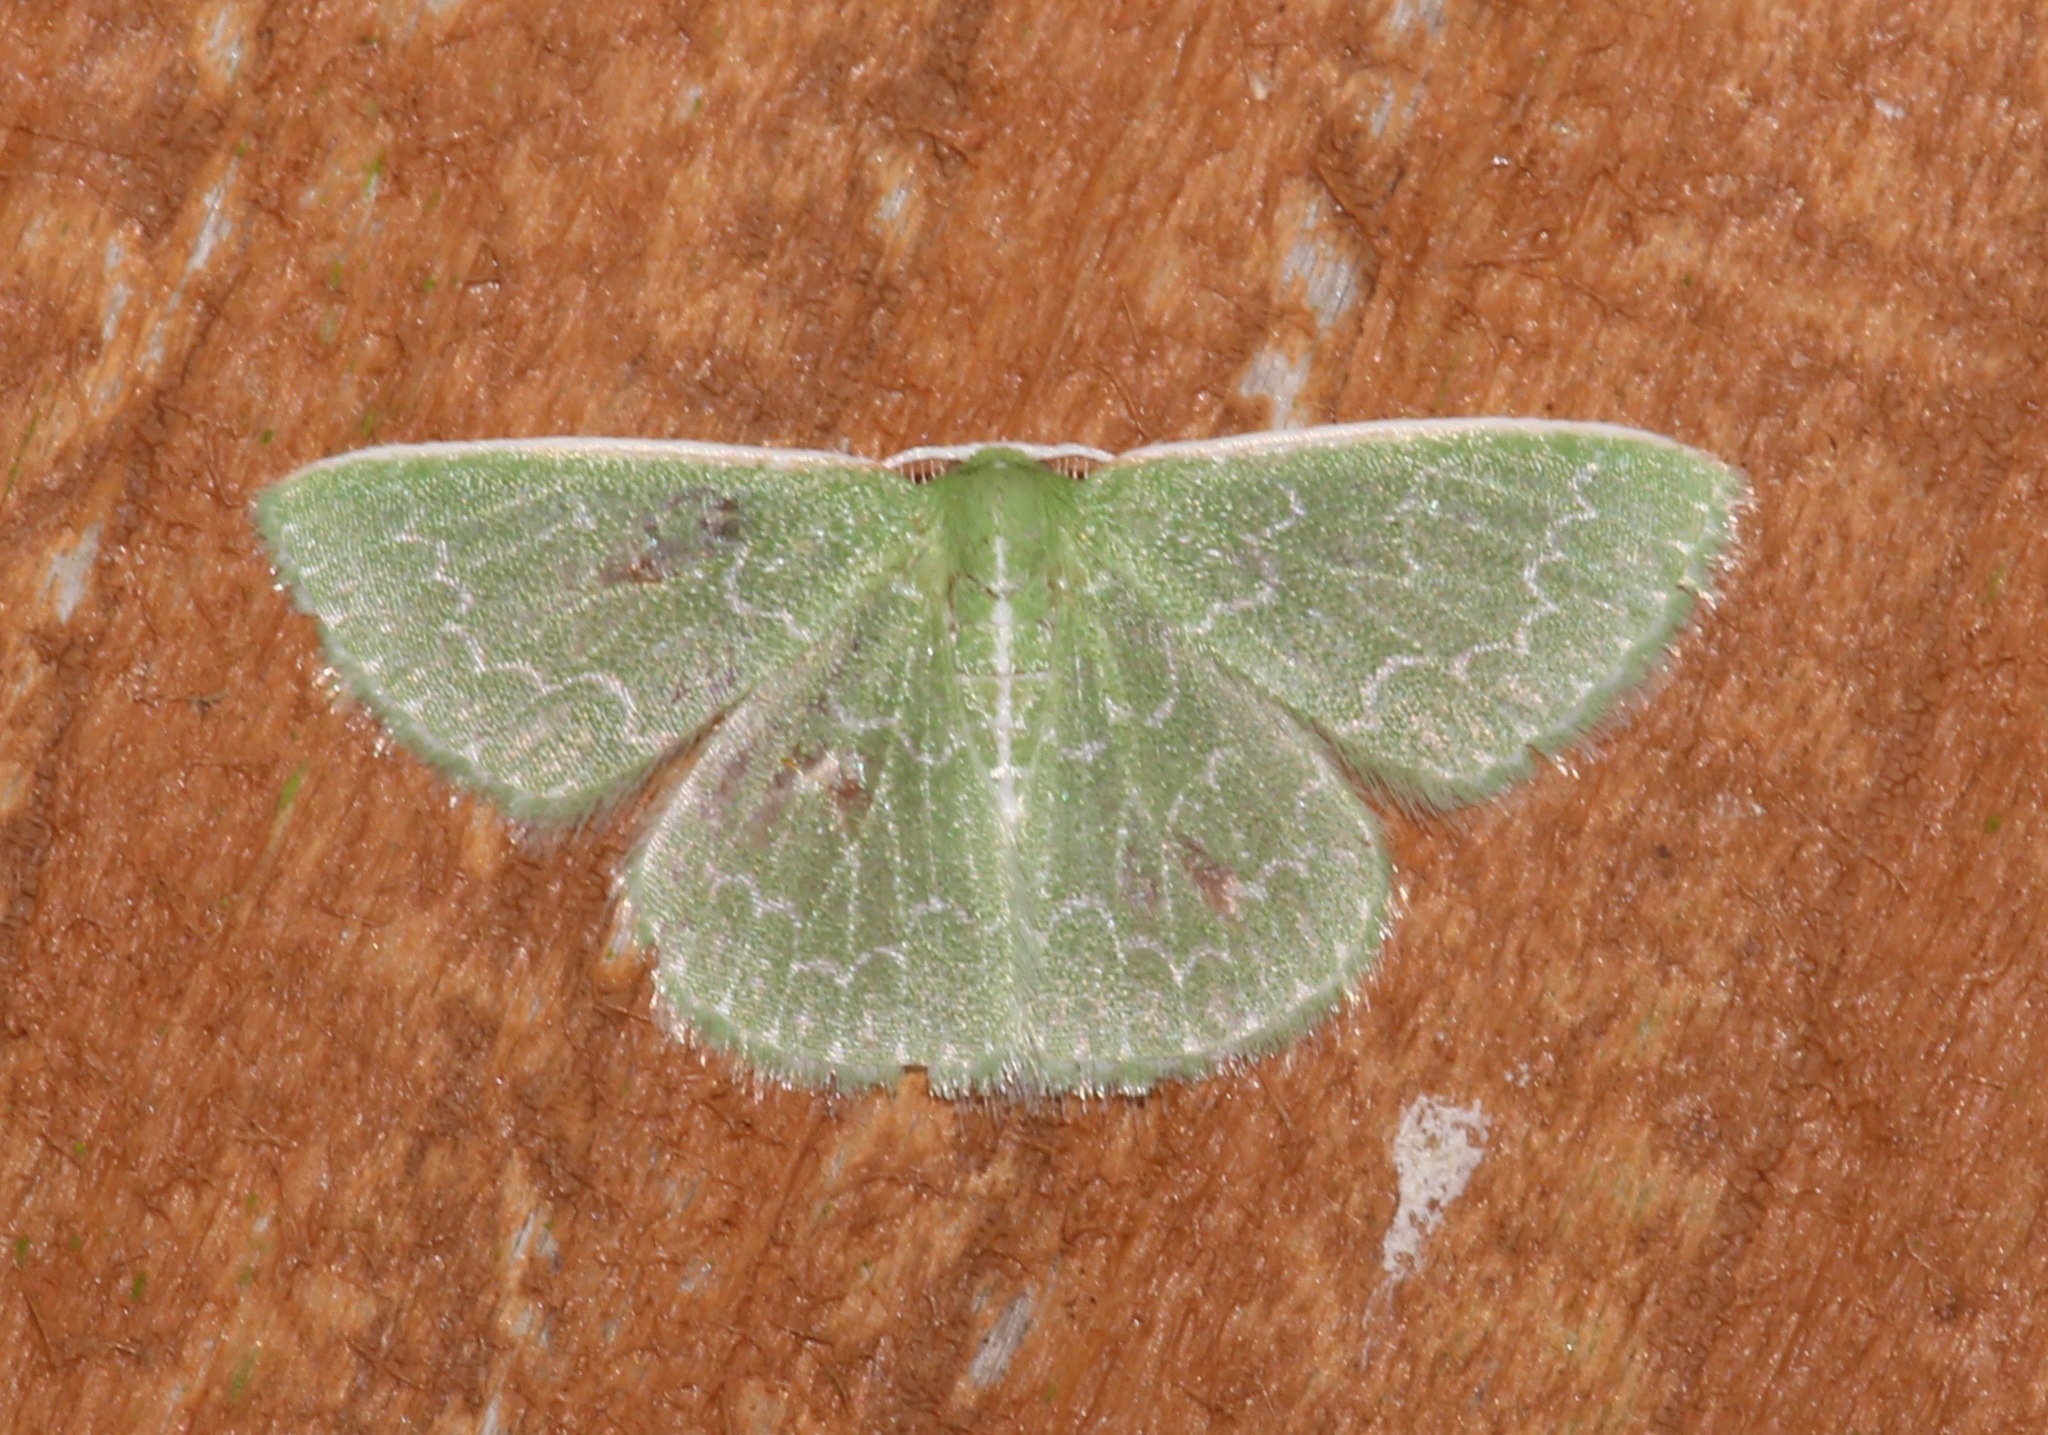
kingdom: Animalia
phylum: Arthropoda
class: Insecta
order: Lepidoptera
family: Geometridae
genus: Synchlora
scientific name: Synchlora frondaria
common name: Southern emerald
